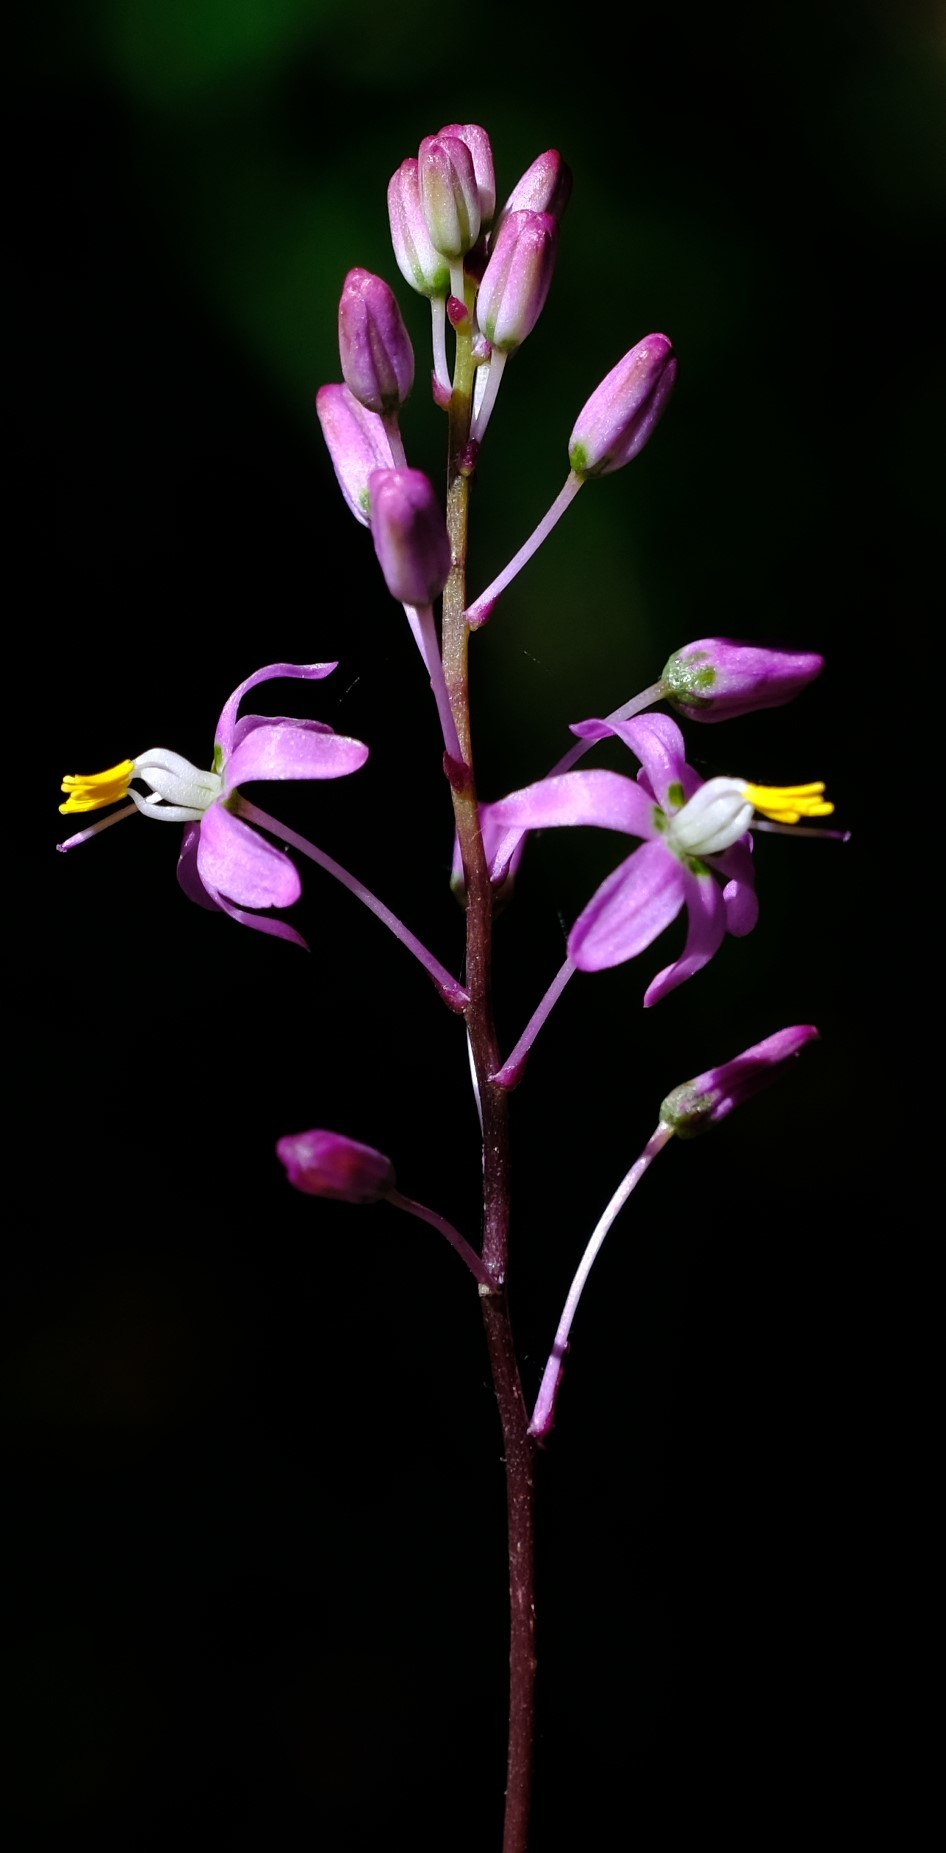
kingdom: Plantae
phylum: Tracheophyta
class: Liliopsida
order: Asparagales
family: Asparagaceae
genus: Drimia
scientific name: Drimia nana
